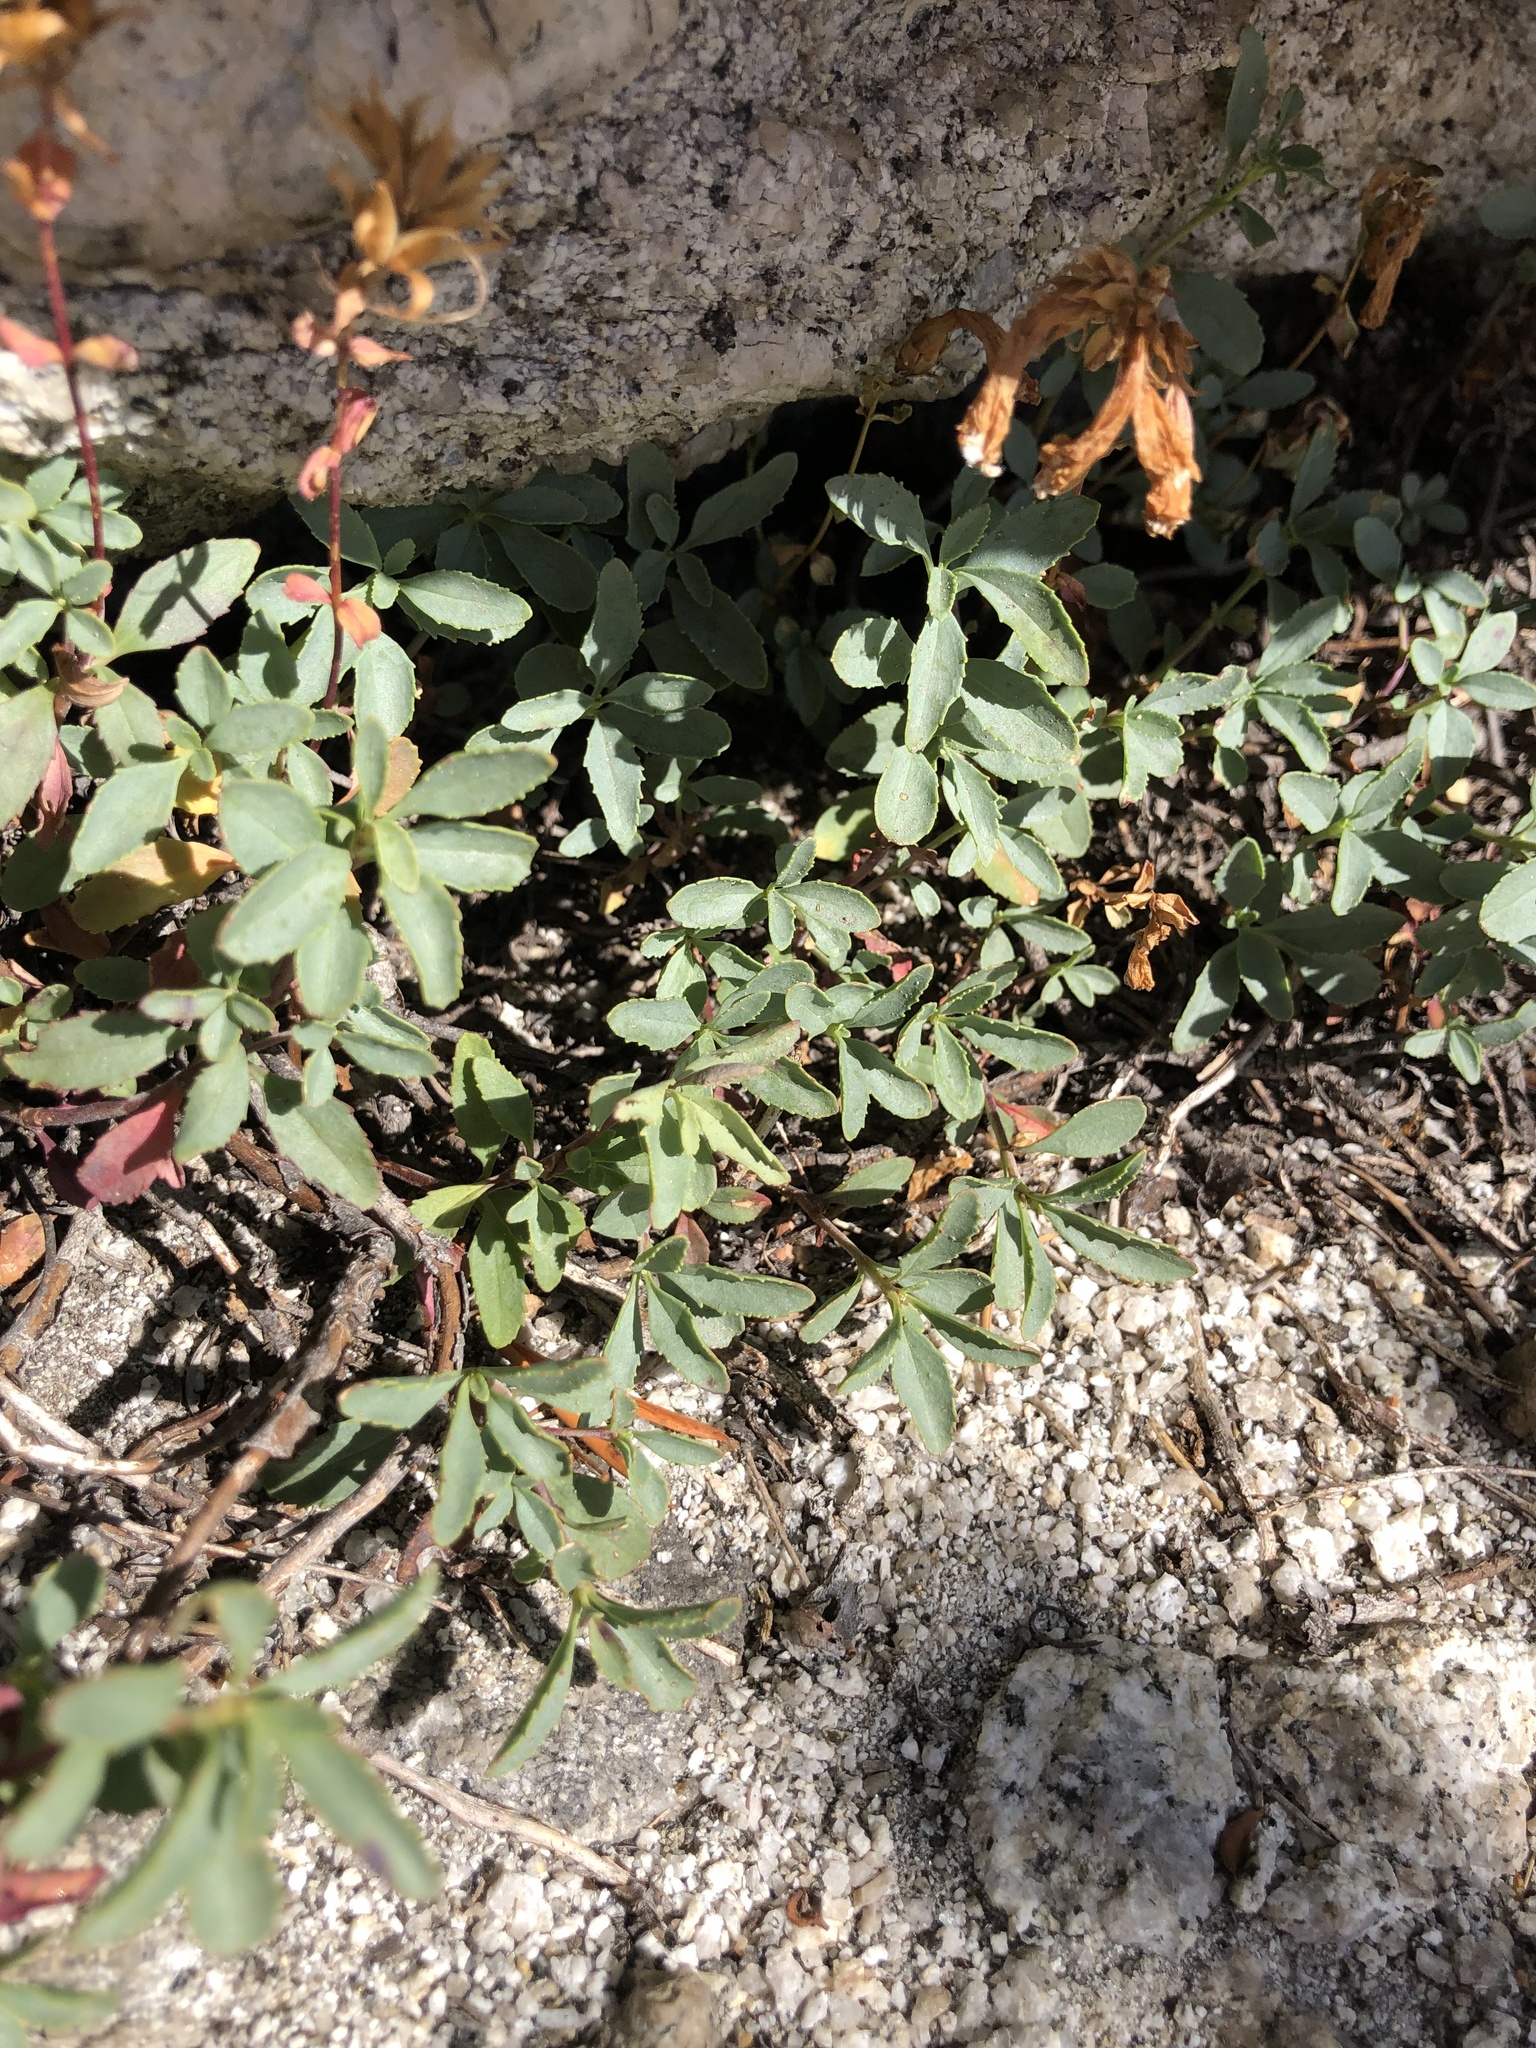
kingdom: Plantae
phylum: Tracheophyta
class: Magnoliopsida
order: Lamiales
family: Plantaginaceae
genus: Penstemon
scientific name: Penstemon newberryi
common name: Mountain-pride
